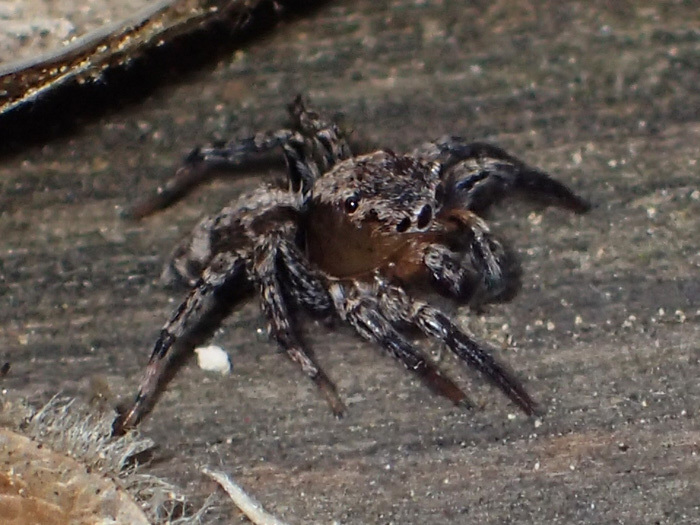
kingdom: Animalia
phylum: Arthropoda
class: Arachnida
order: Araneae
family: Salticidae
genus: Naphrys
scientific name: Naphrys pulex
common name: Flea jumping spider
